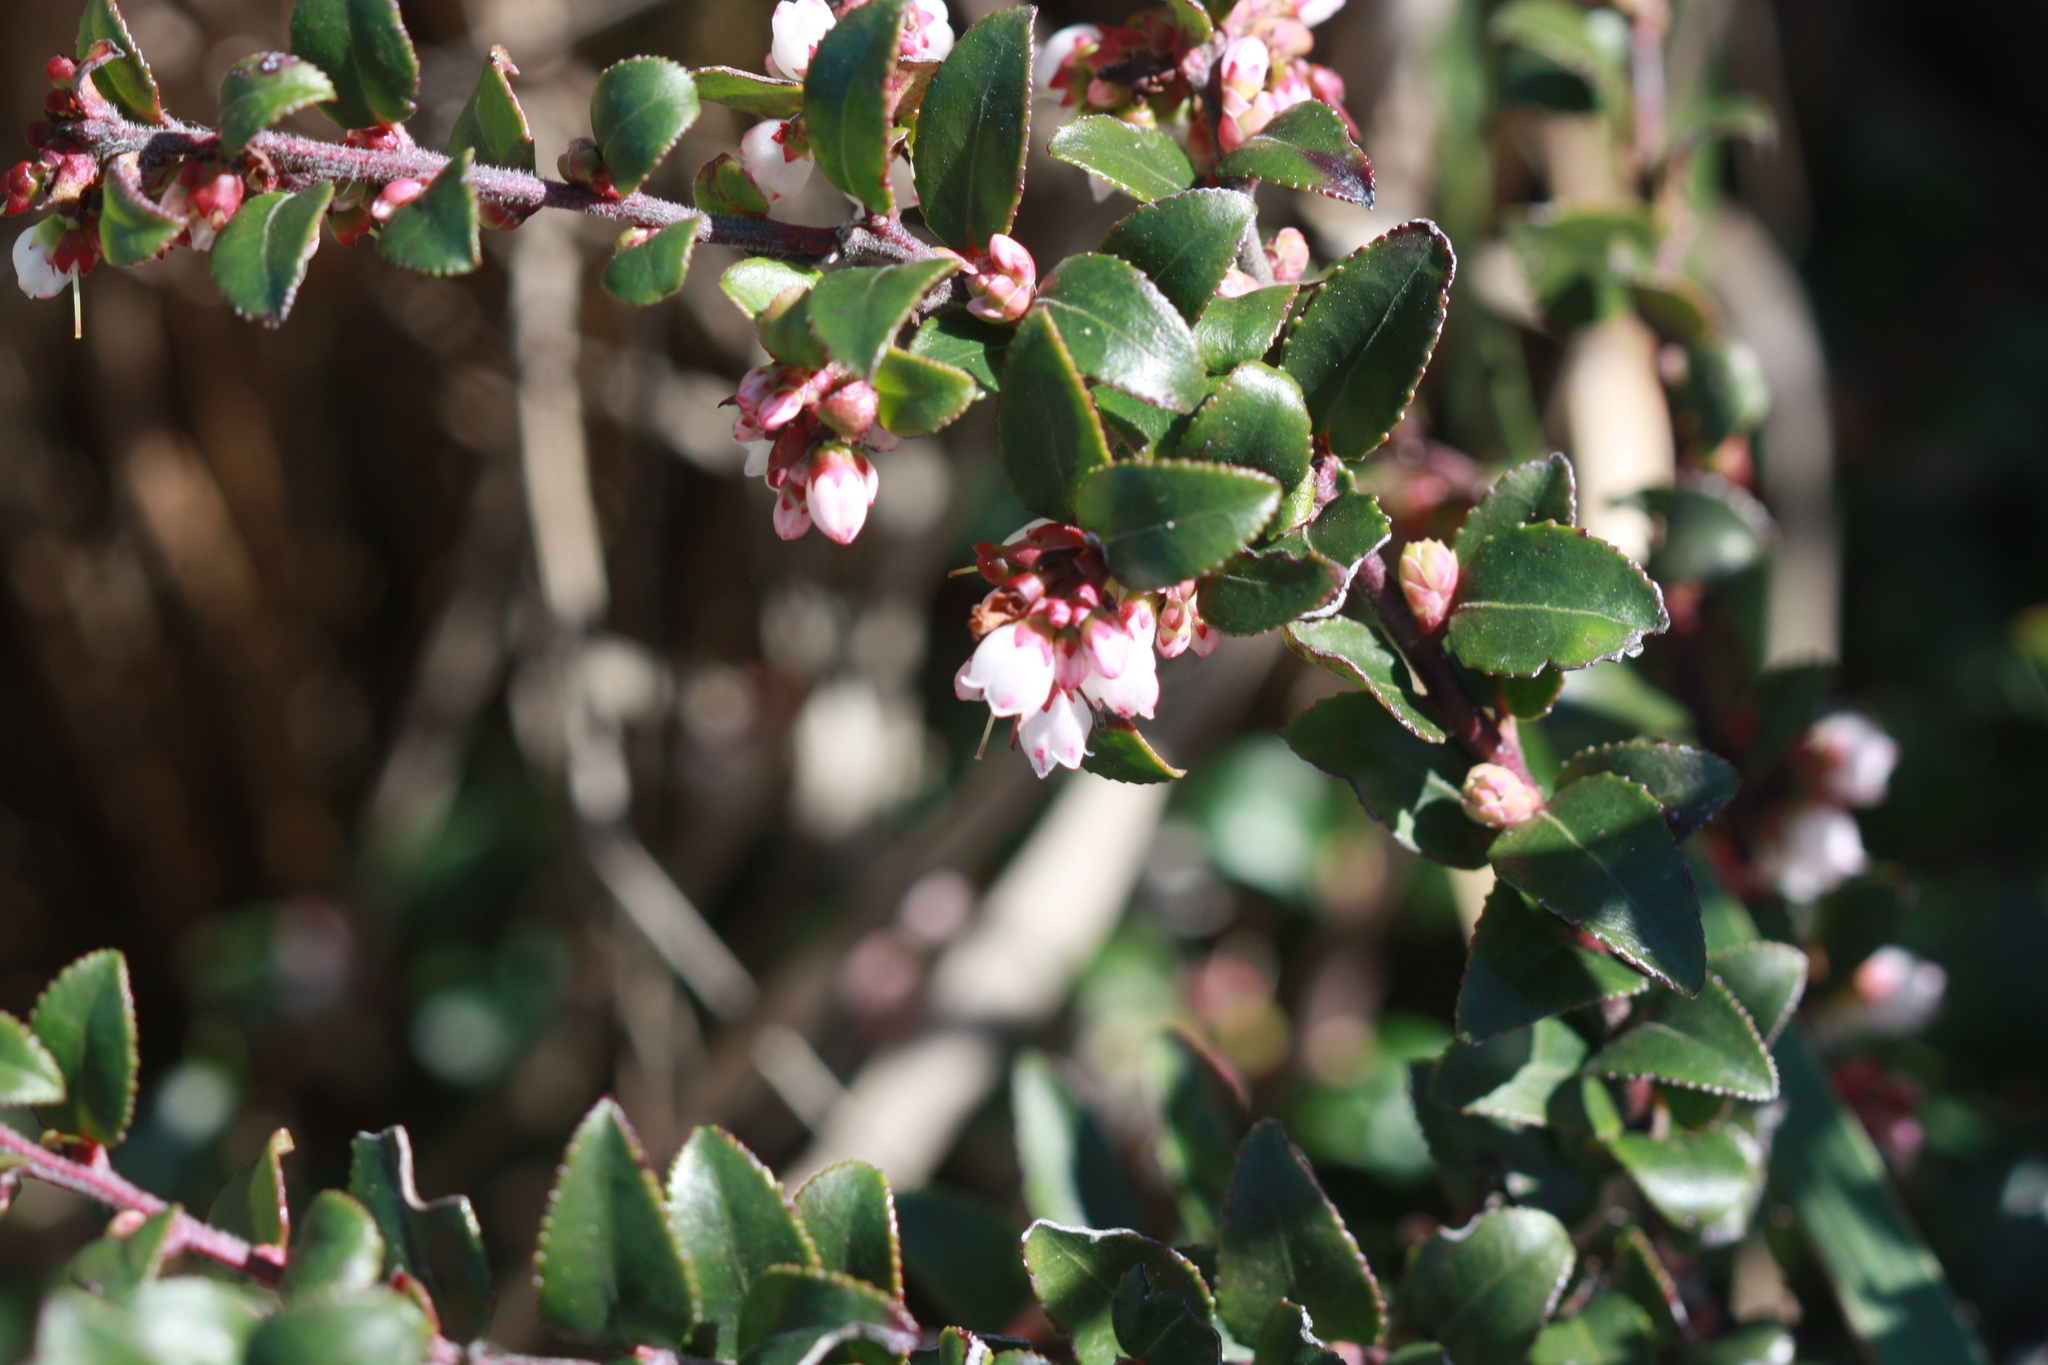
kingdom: Plantae
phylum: Tracheophyta
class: Magnoliopsida
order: Ericales
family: Ericaceae
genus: Vaccinium
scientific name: Vaccinium ovatum
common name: California-huckleberry
